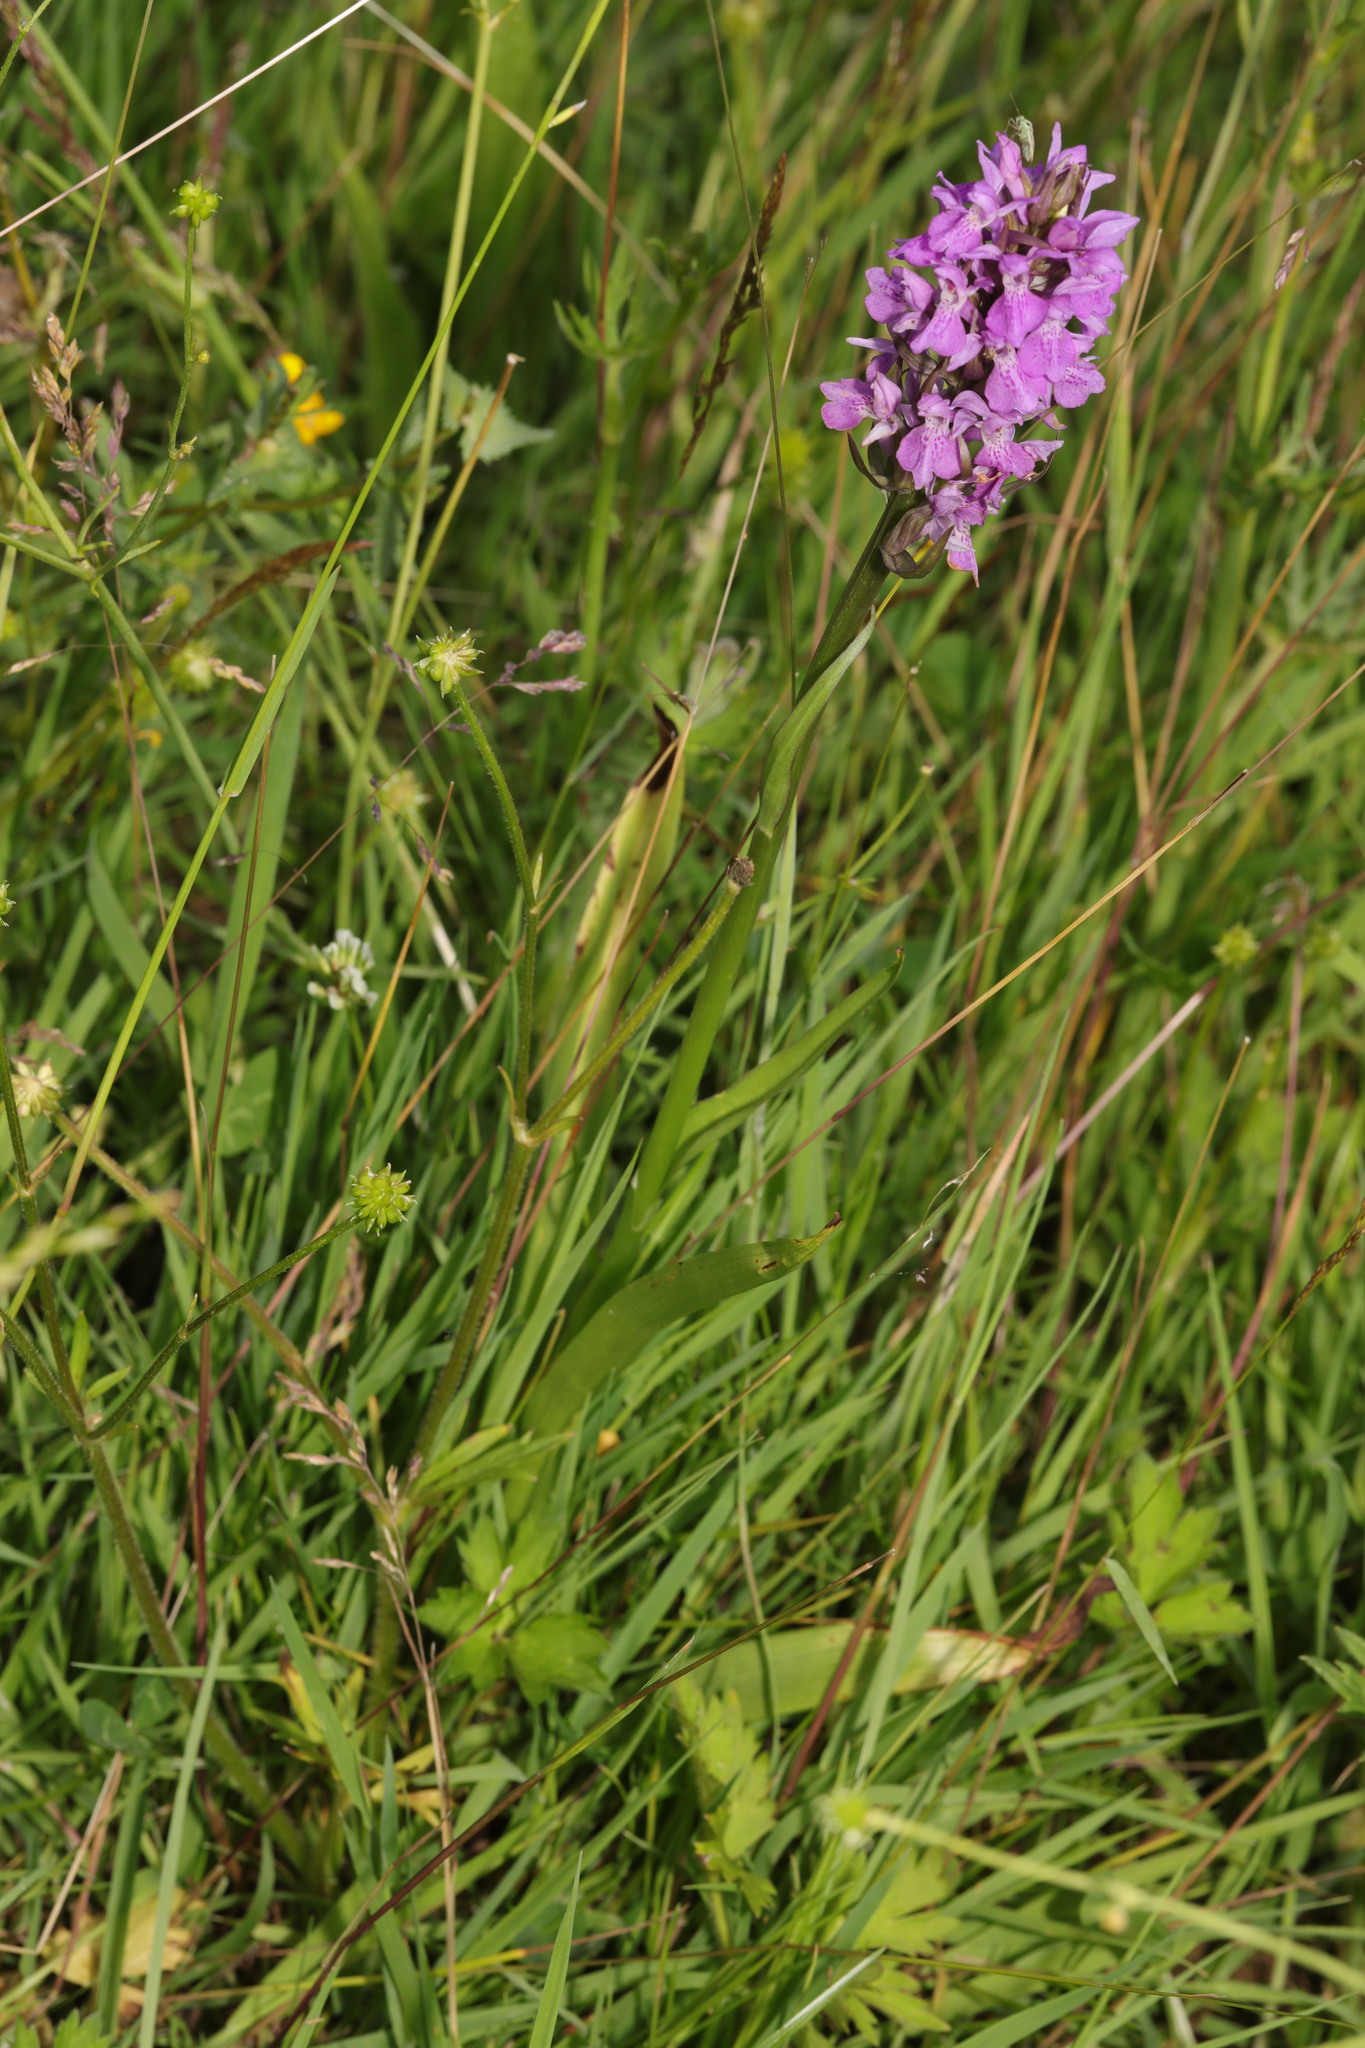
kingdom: Plantae
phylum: Tracheophyta
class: Liliopsida
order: Asparagales
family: Orchidaceae
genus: Dactylorhiza
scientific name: Dactylorhiza majalis
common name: Marsh orchid
